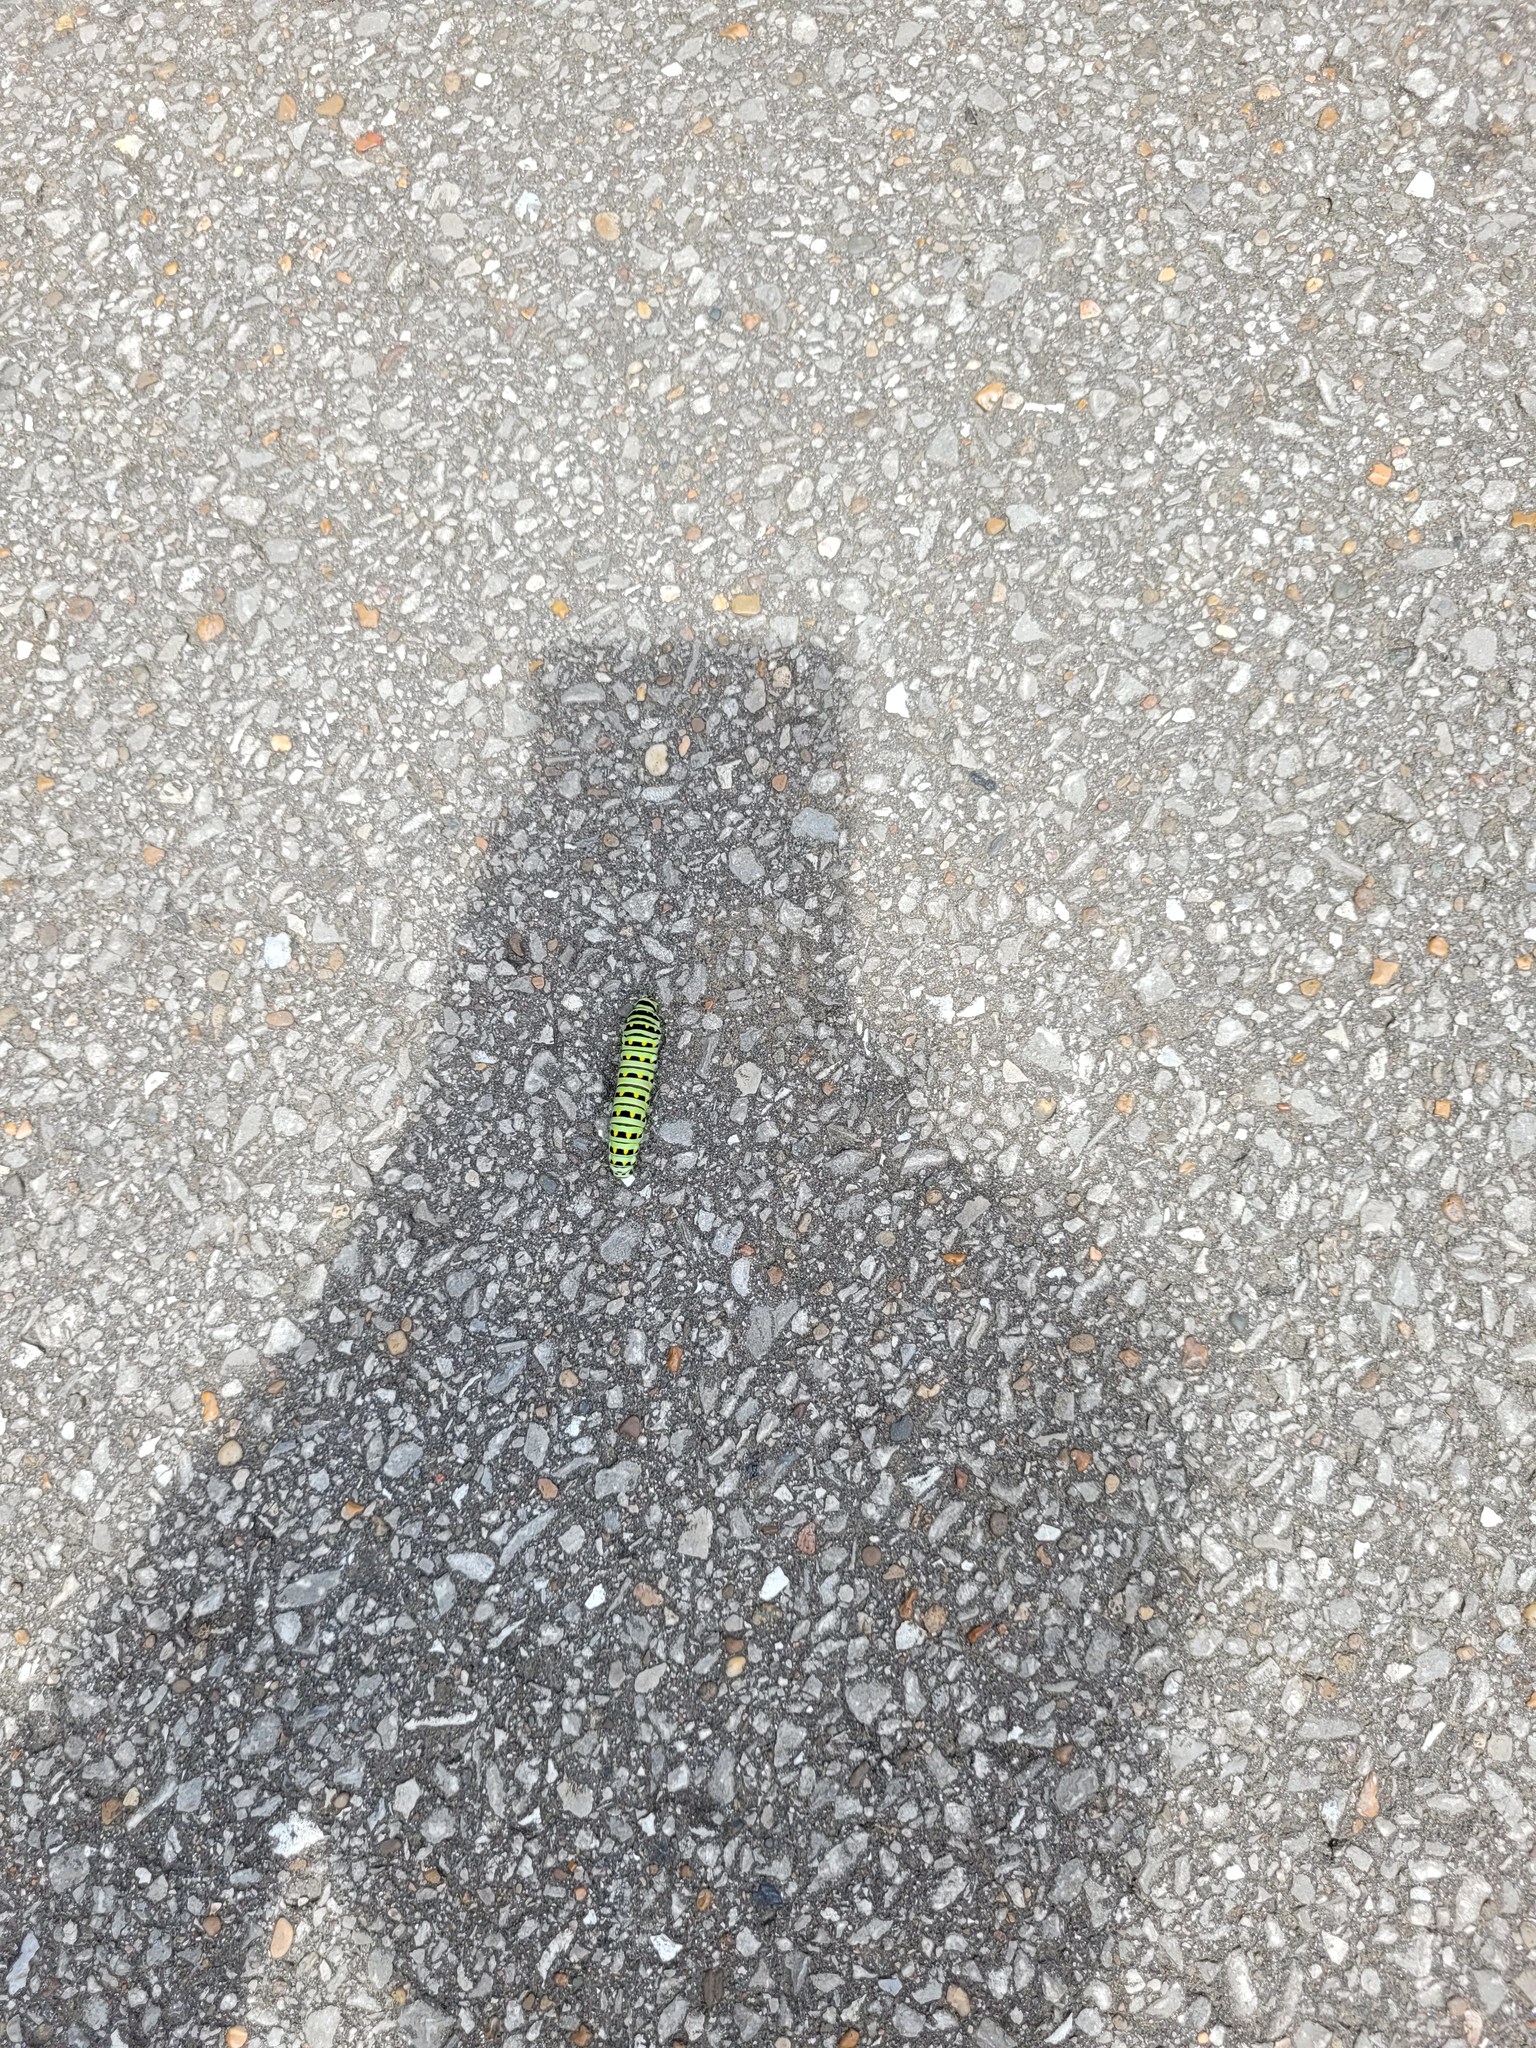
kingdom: Animalia
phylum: Arthropoda
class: Insecta
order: Lepidoptera
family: Papilionidae
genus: Papilio
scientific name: Papilio polyxenes
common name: Black swallowtail
